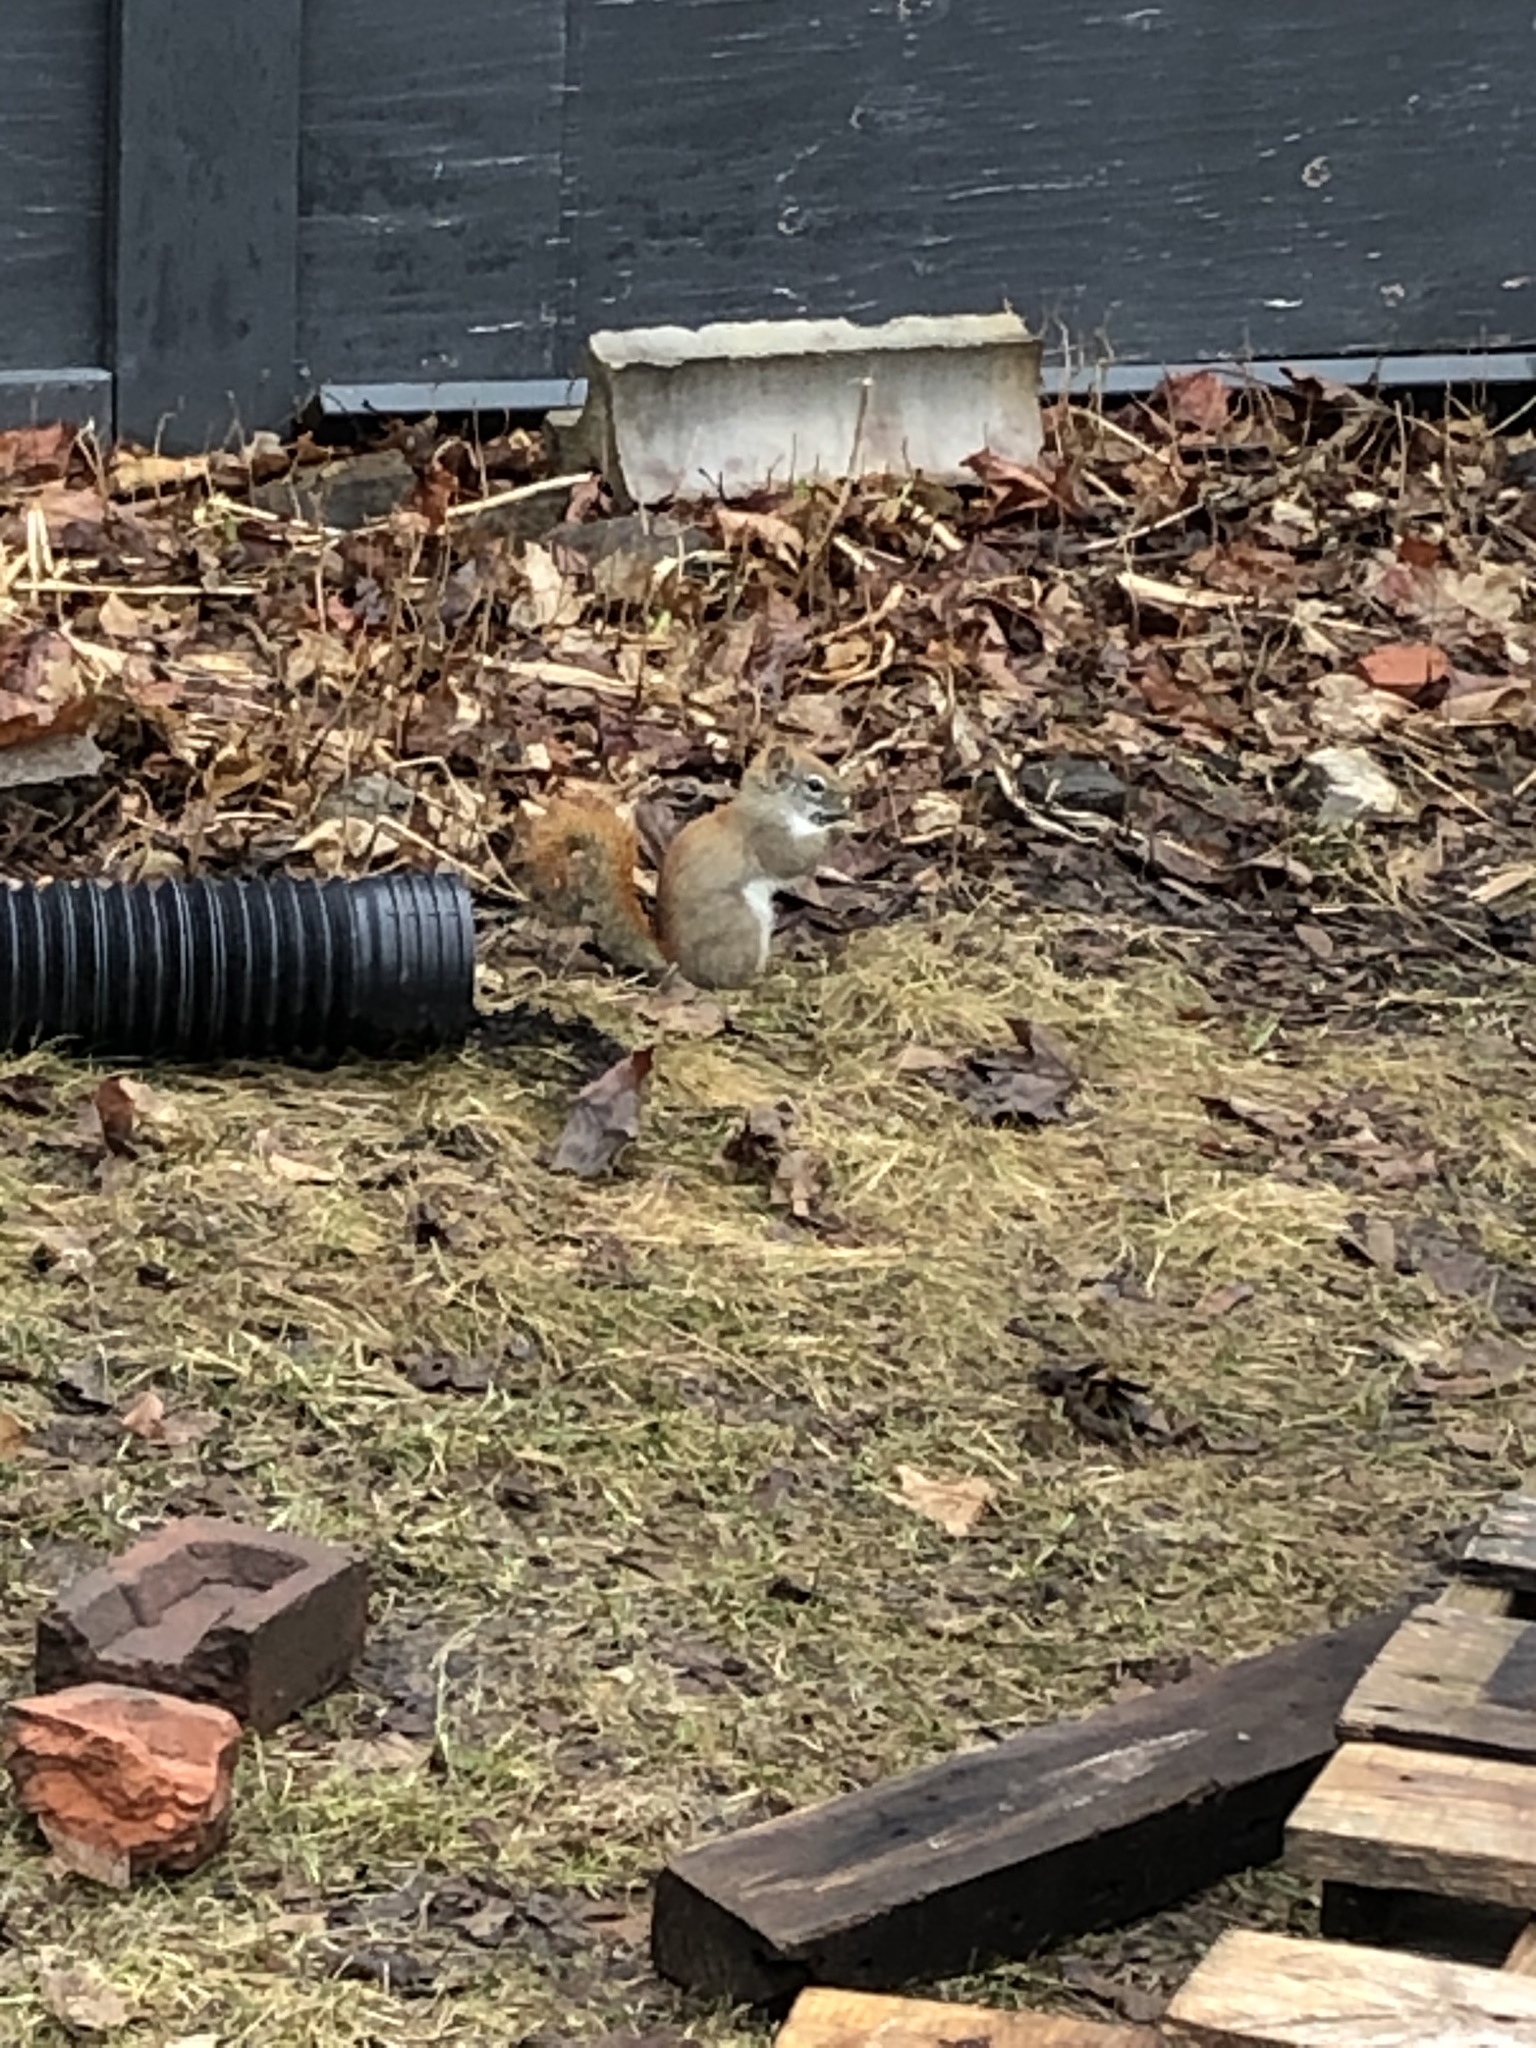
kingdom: Animalia
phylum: Chordata
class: Mammalia
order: Rodentia
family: Sciuridae
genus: Tamiasciurus
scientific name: Tamiasciurus hudsonicus
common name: Red squirrel
